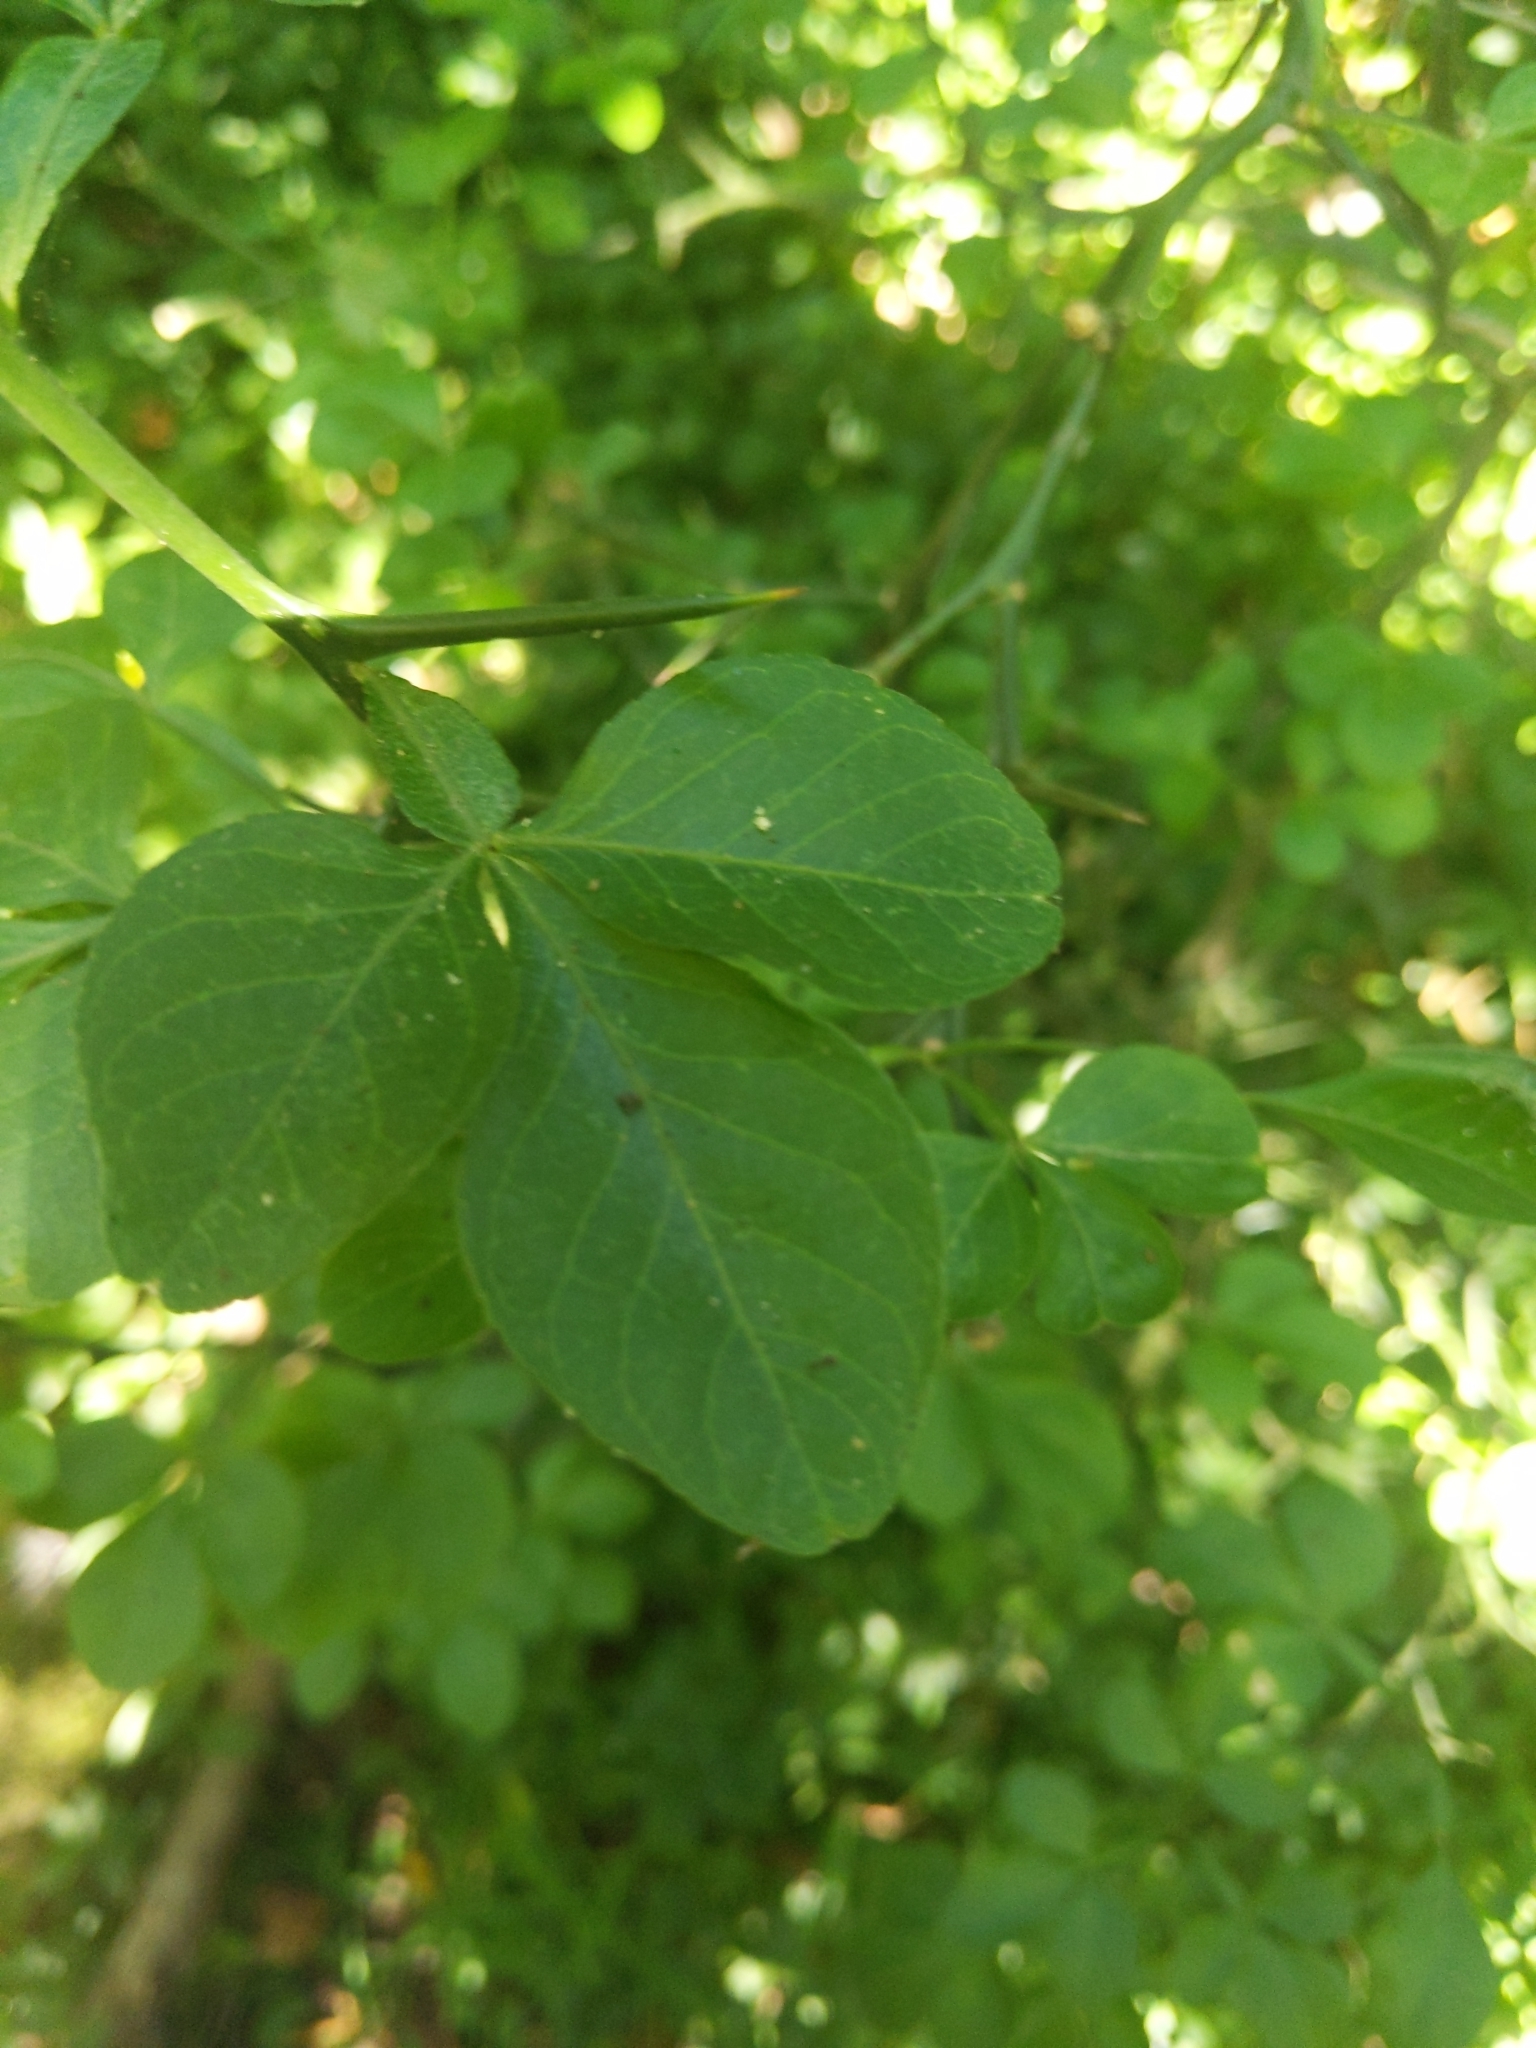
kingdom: Plantae
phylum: Tracheophyta
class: Magnoliopsida
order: Sapindales
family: Rutaceae
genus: Citrus
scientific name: Citrus trifoliata
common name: Japanese bitter-orange
